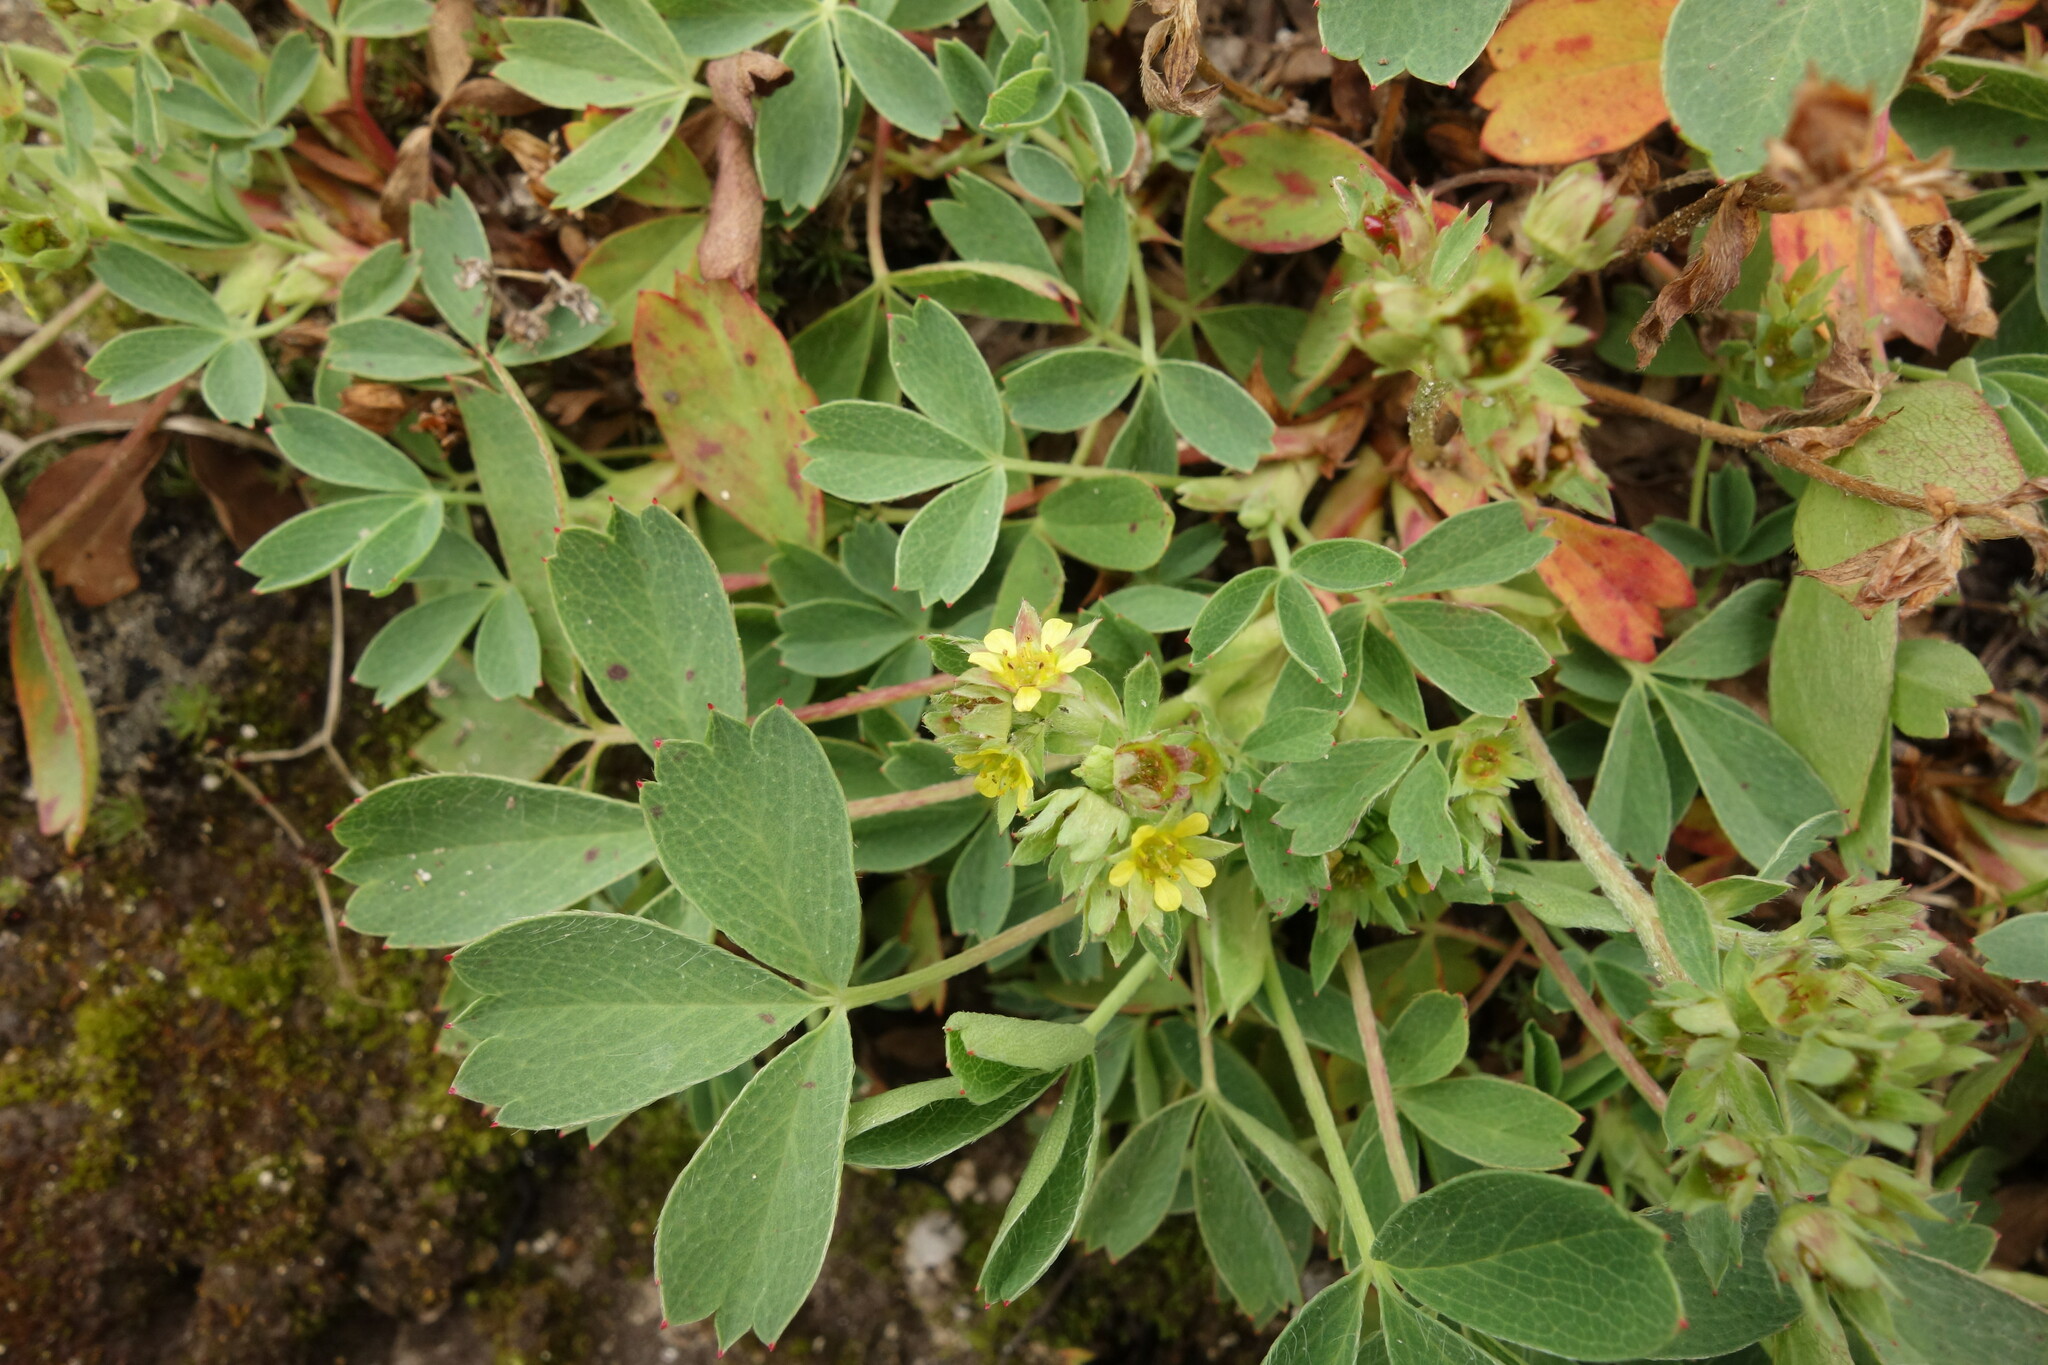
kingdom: Plantae
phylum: Tracheophyta
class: Magnoliopsida
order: Rosales
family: Rosaceae
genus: Sibbaldia
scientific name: Sibbaldia procumbens
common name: Creeping sibbaldia
